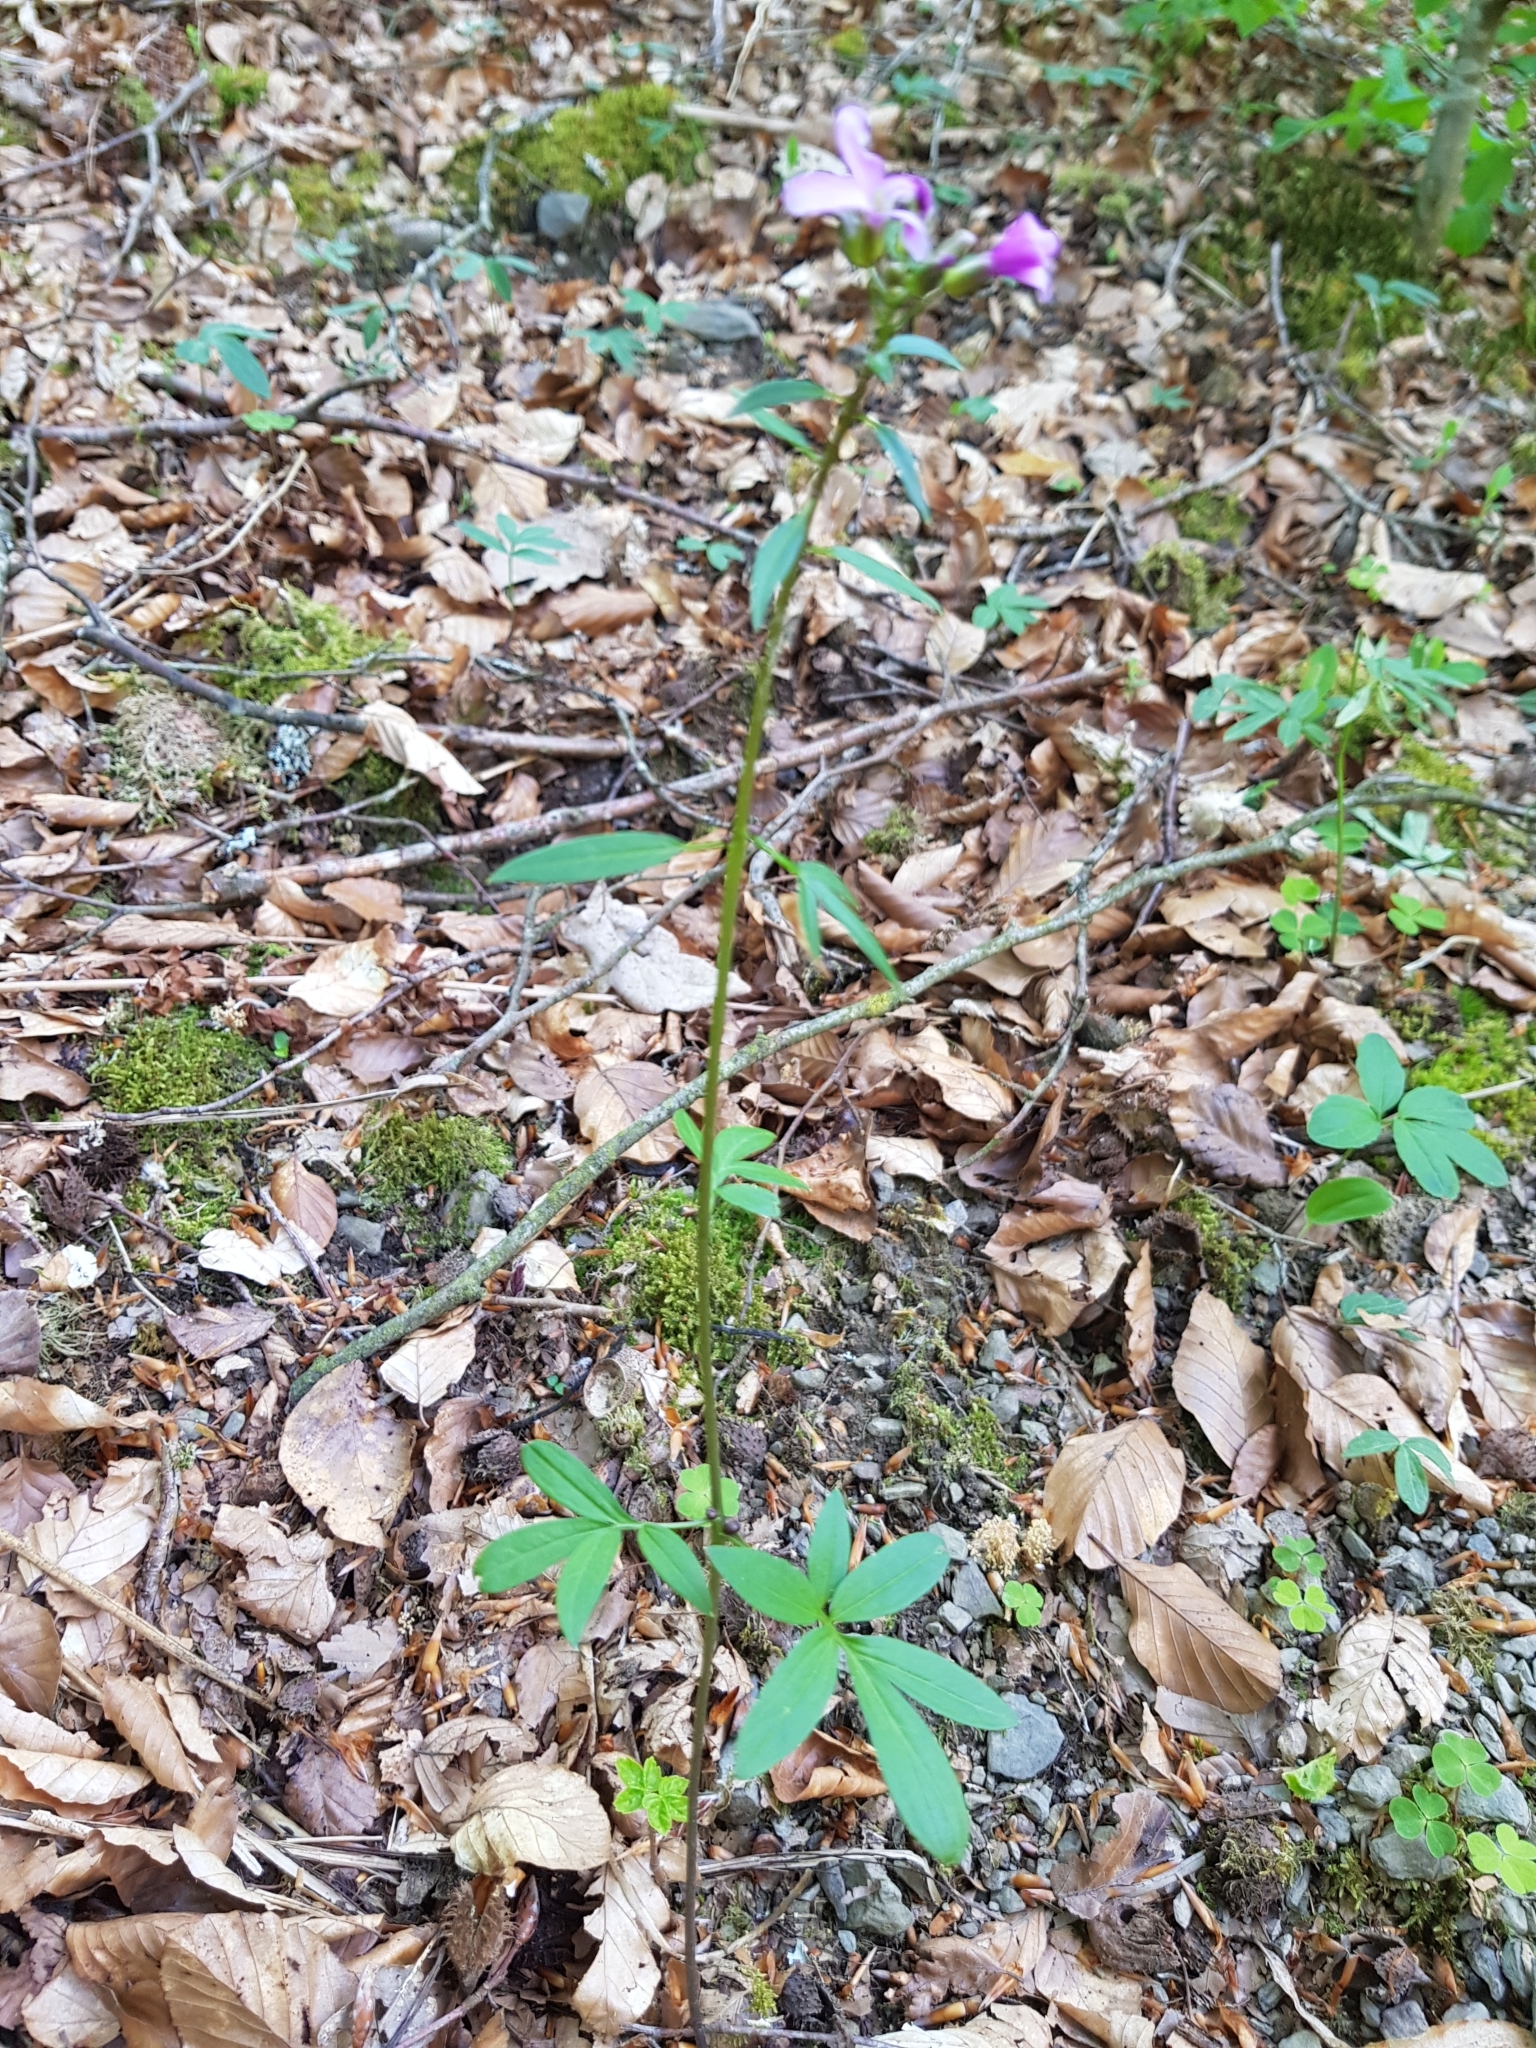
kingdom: Plantae
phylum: Tracheophyta
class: Magnoliopsida
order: Brassicales
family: Brassicaceae
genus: Cardamine
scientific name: Cardamine bulbifera
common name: Coralroot bittercress
